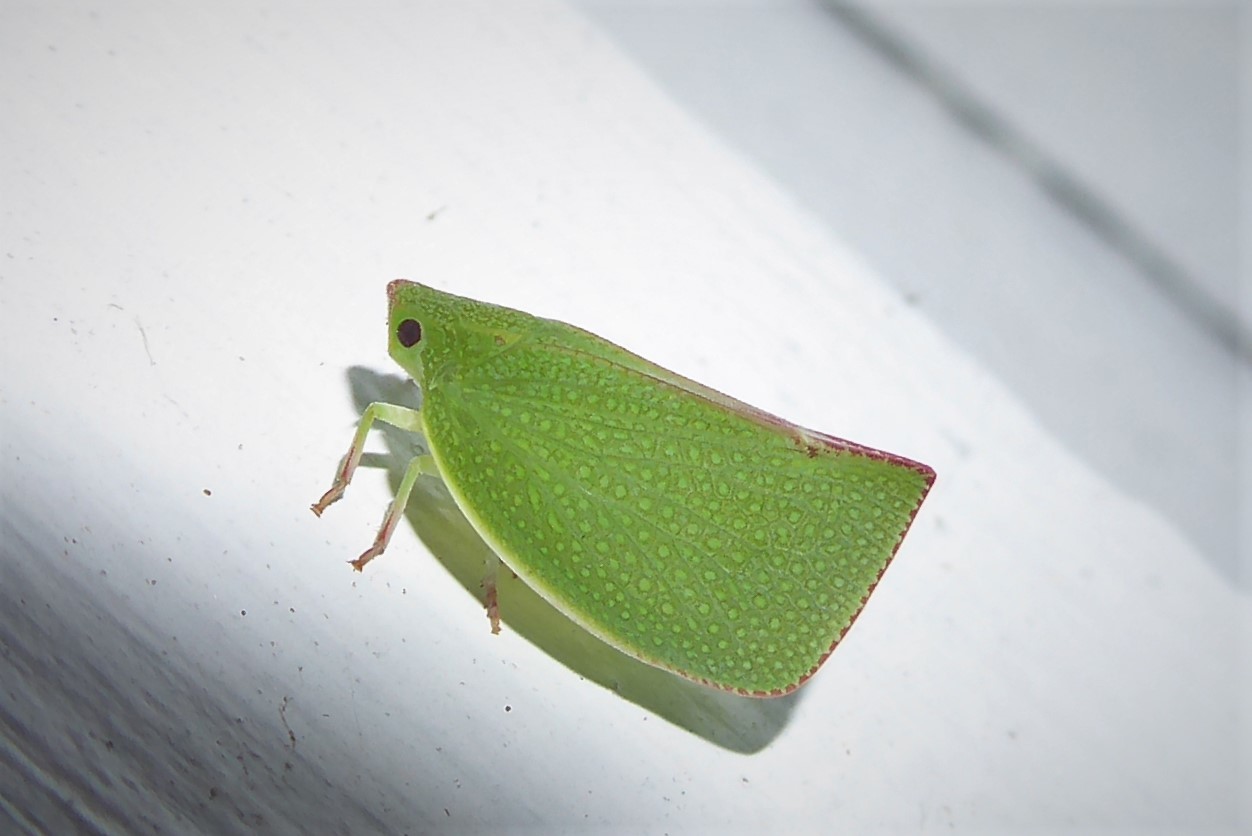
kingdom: Animalia
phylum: Arthropoda
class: Insecta
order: Hemiptera
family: Flatidae
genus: Siphanta
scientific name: Siphanta acuta
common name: Torpedo bug
